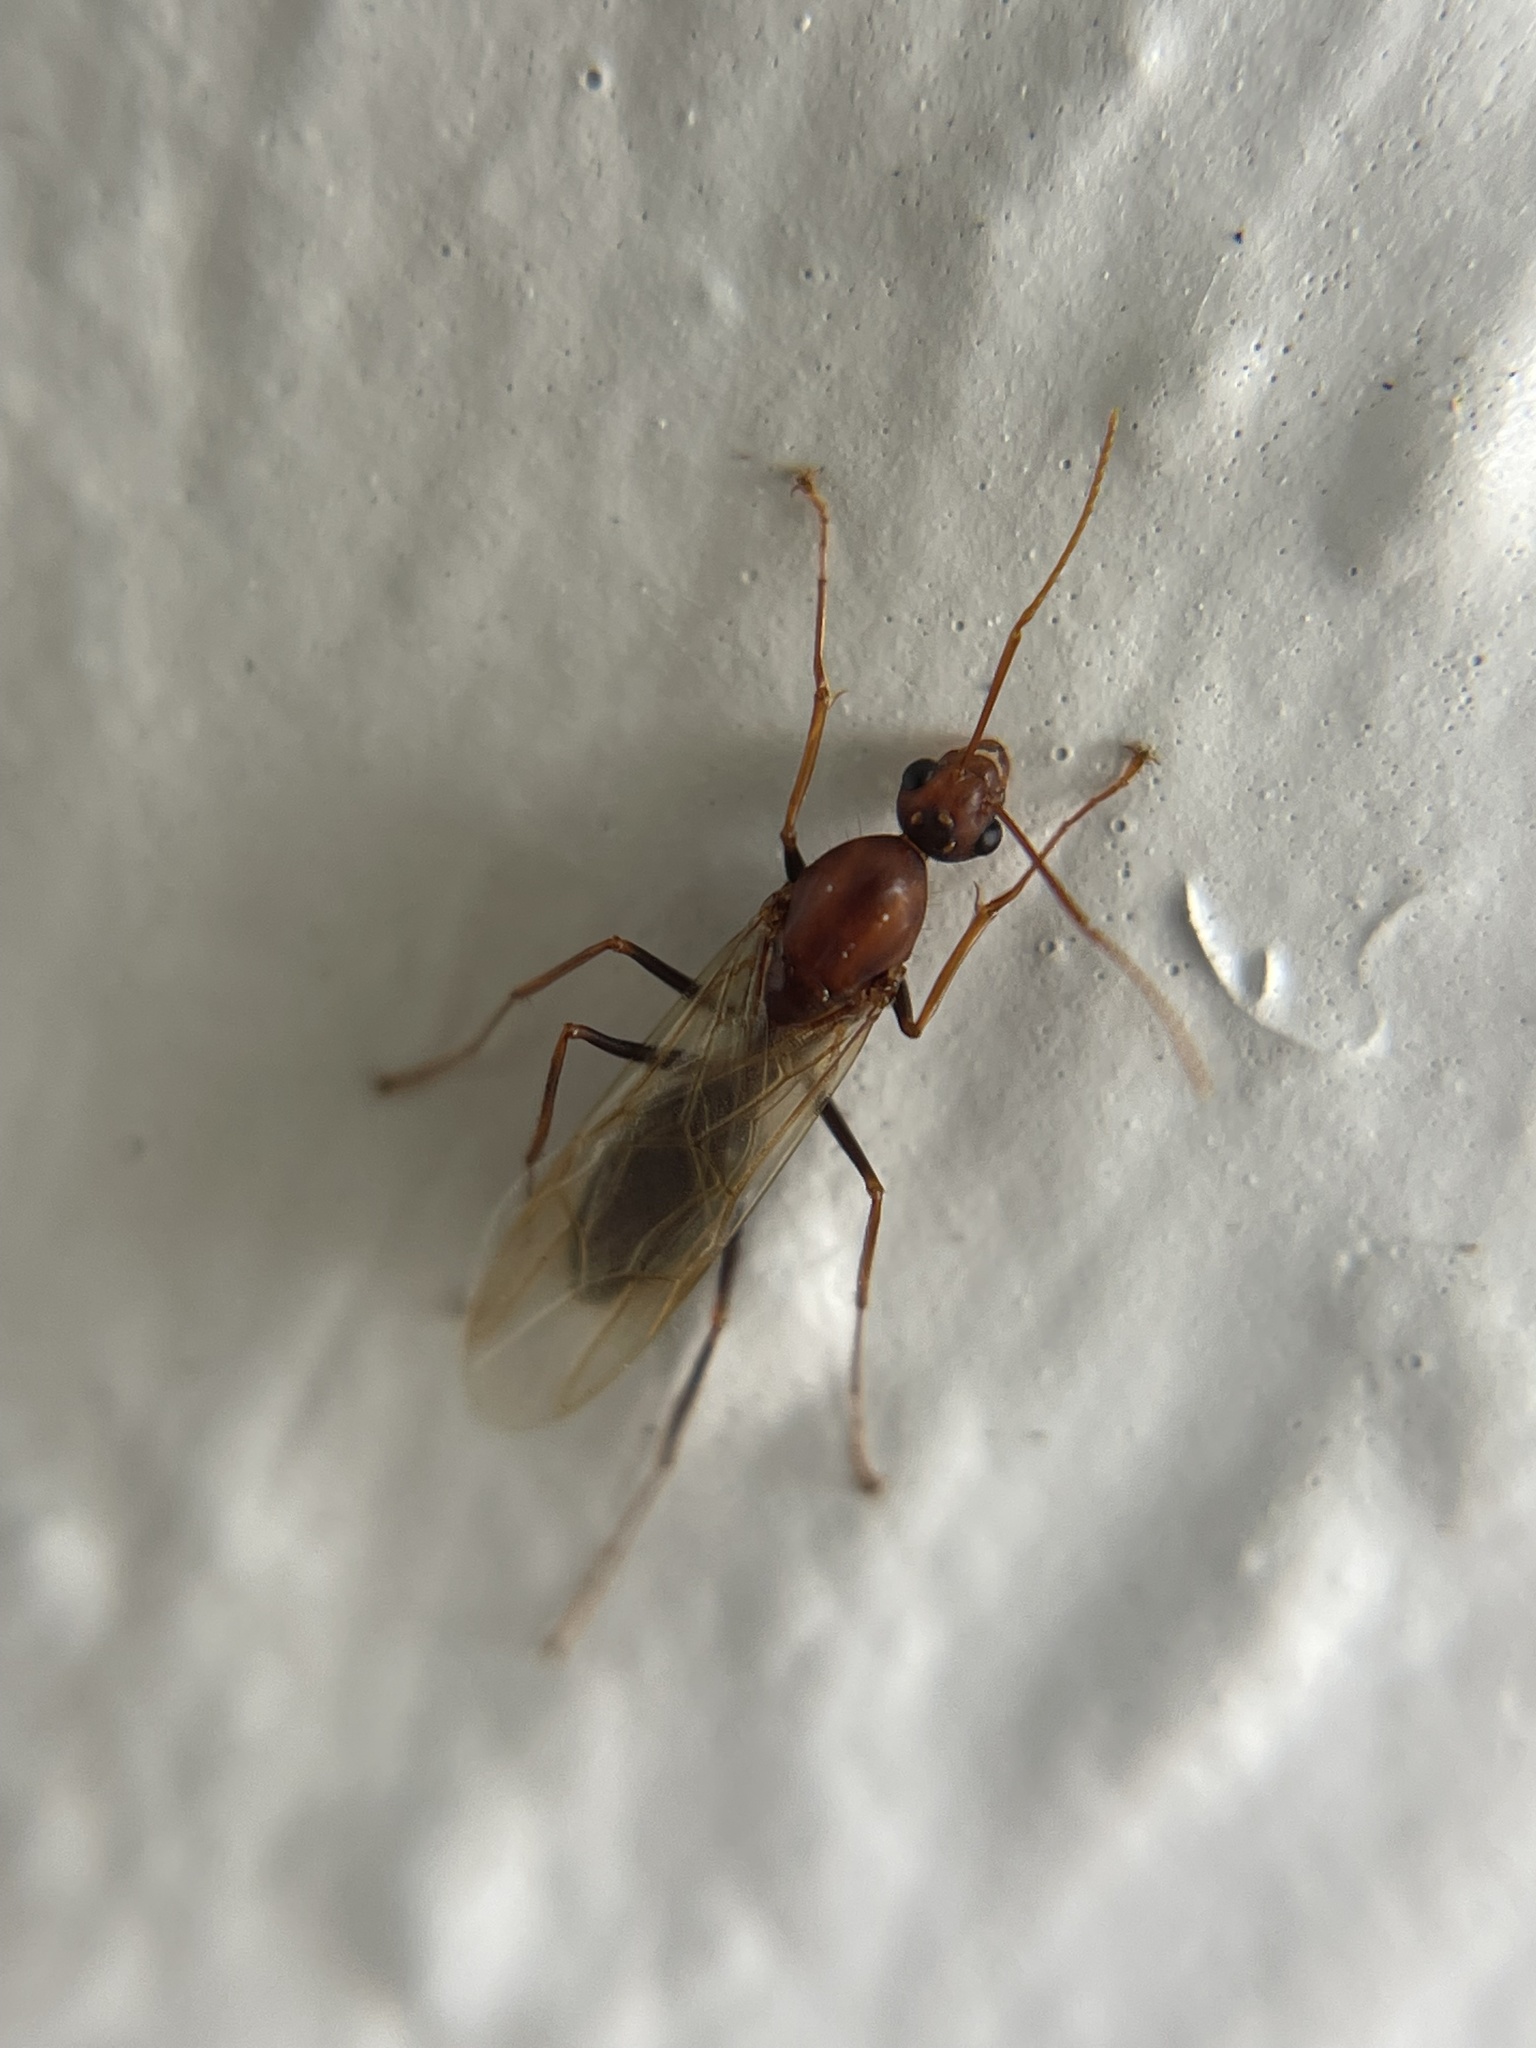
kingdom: Animalia
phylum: Arthropoda
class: Insecta
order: Hymenoptera
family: Formicidae
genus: Camponotus
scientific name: Camponotus floridanus
